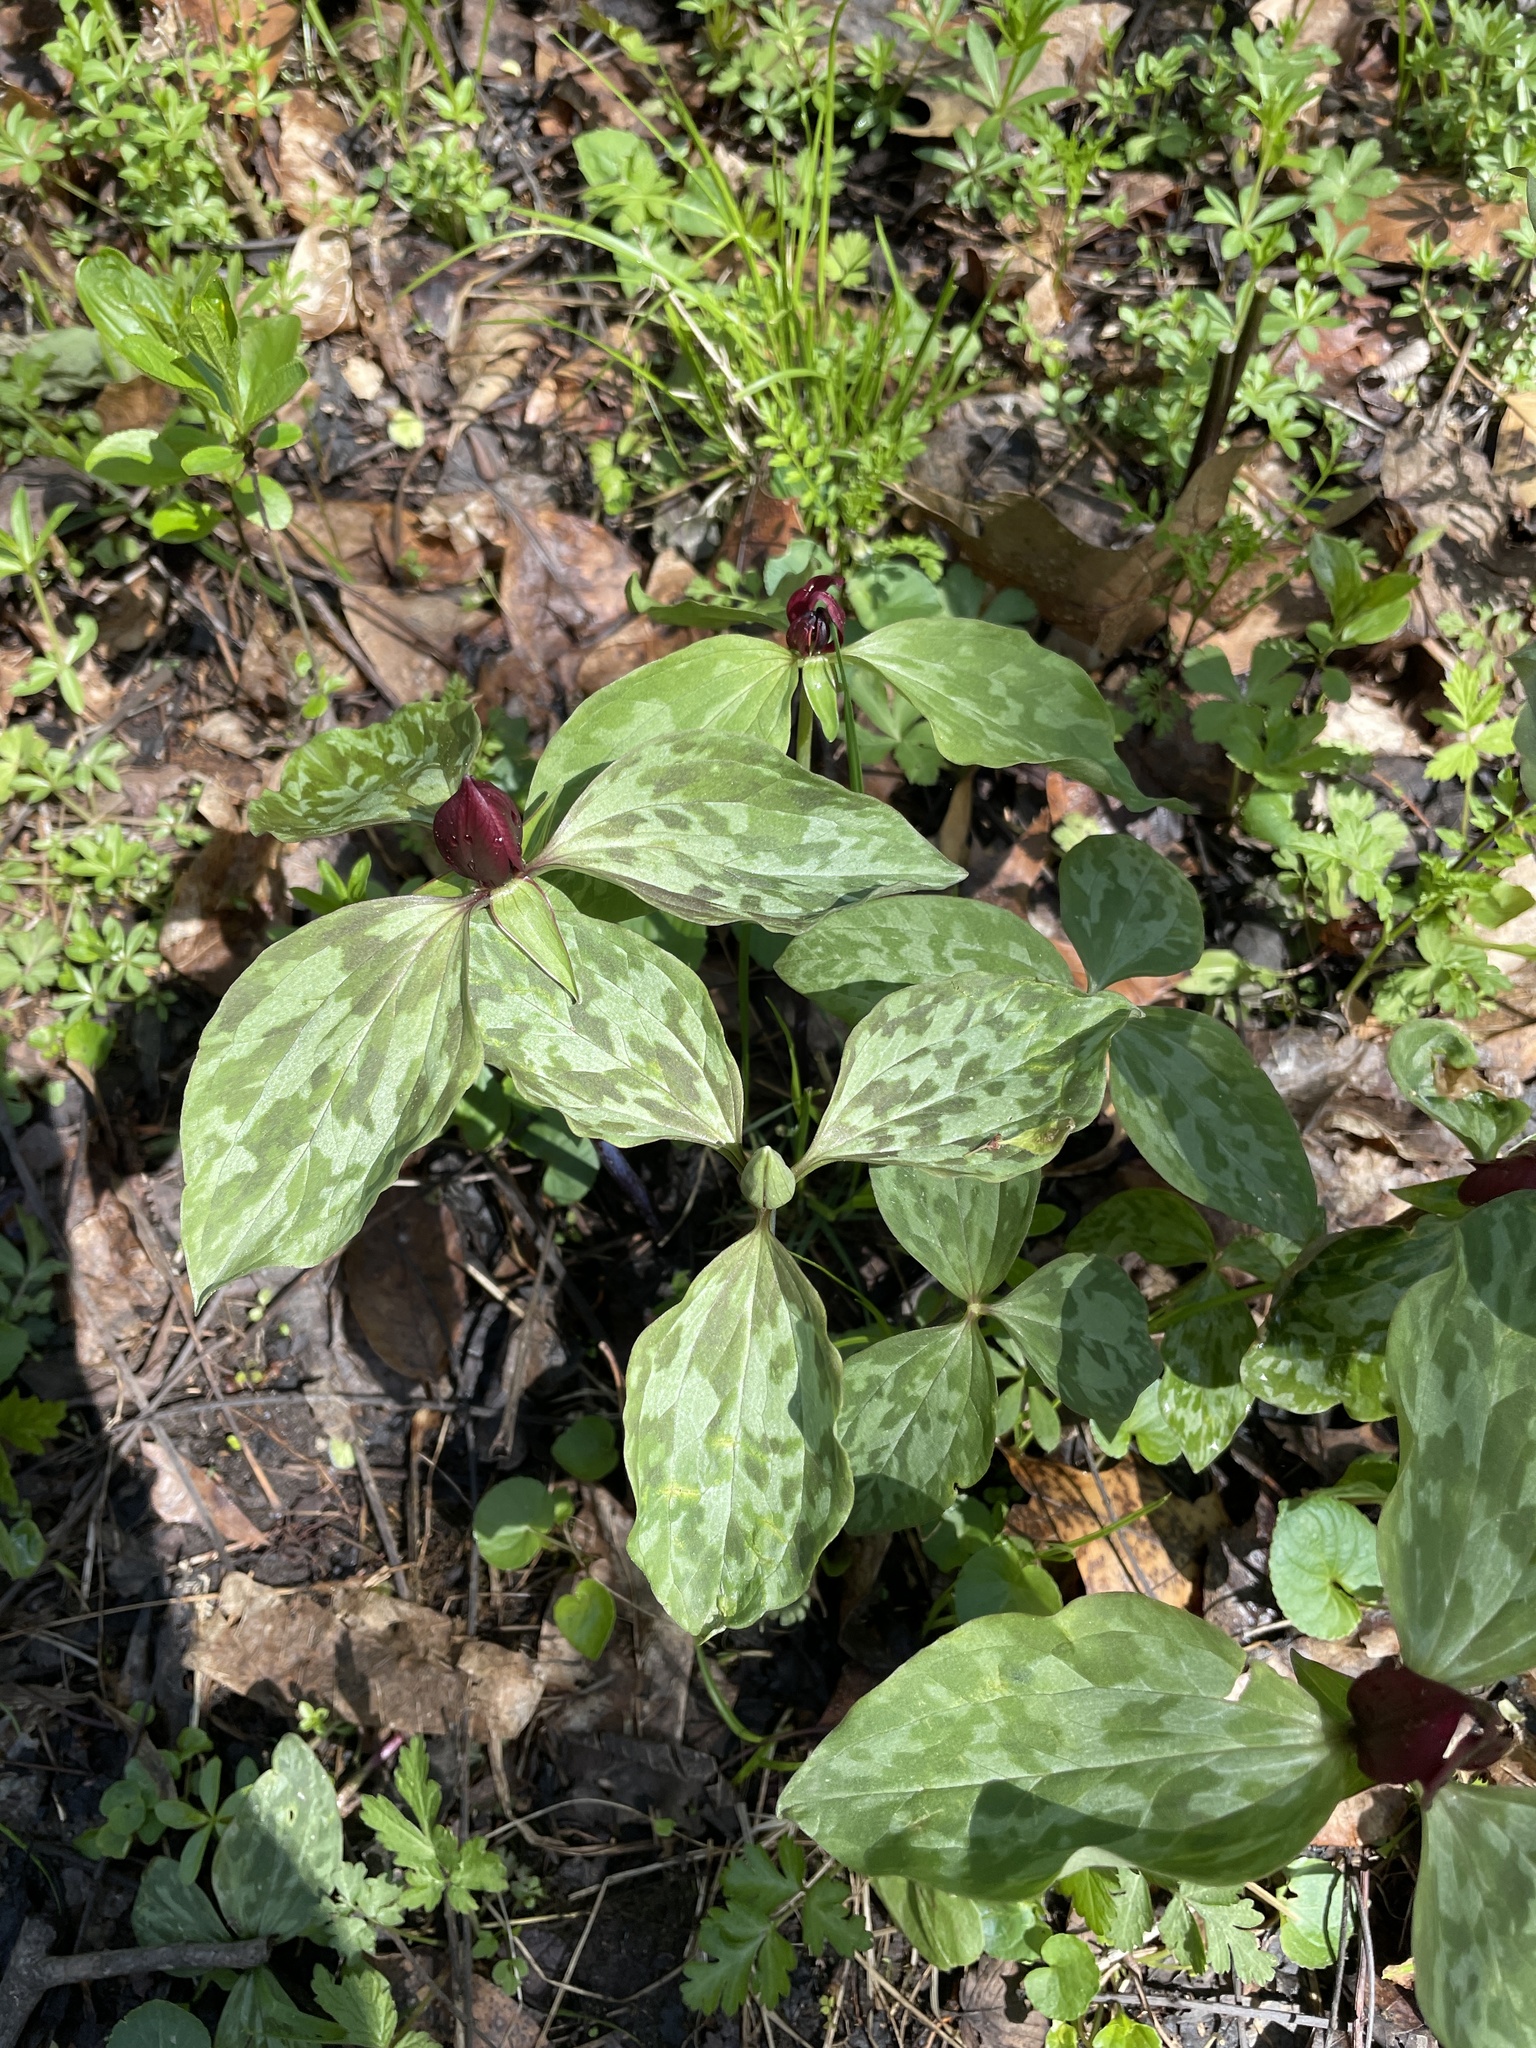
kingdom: Plantae
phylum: Tracheophyta
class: Liliopsida
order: Liliales
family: Melanthiaceae
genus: Trillium
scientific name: Trillium recurvatum
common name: Bloody butcher
